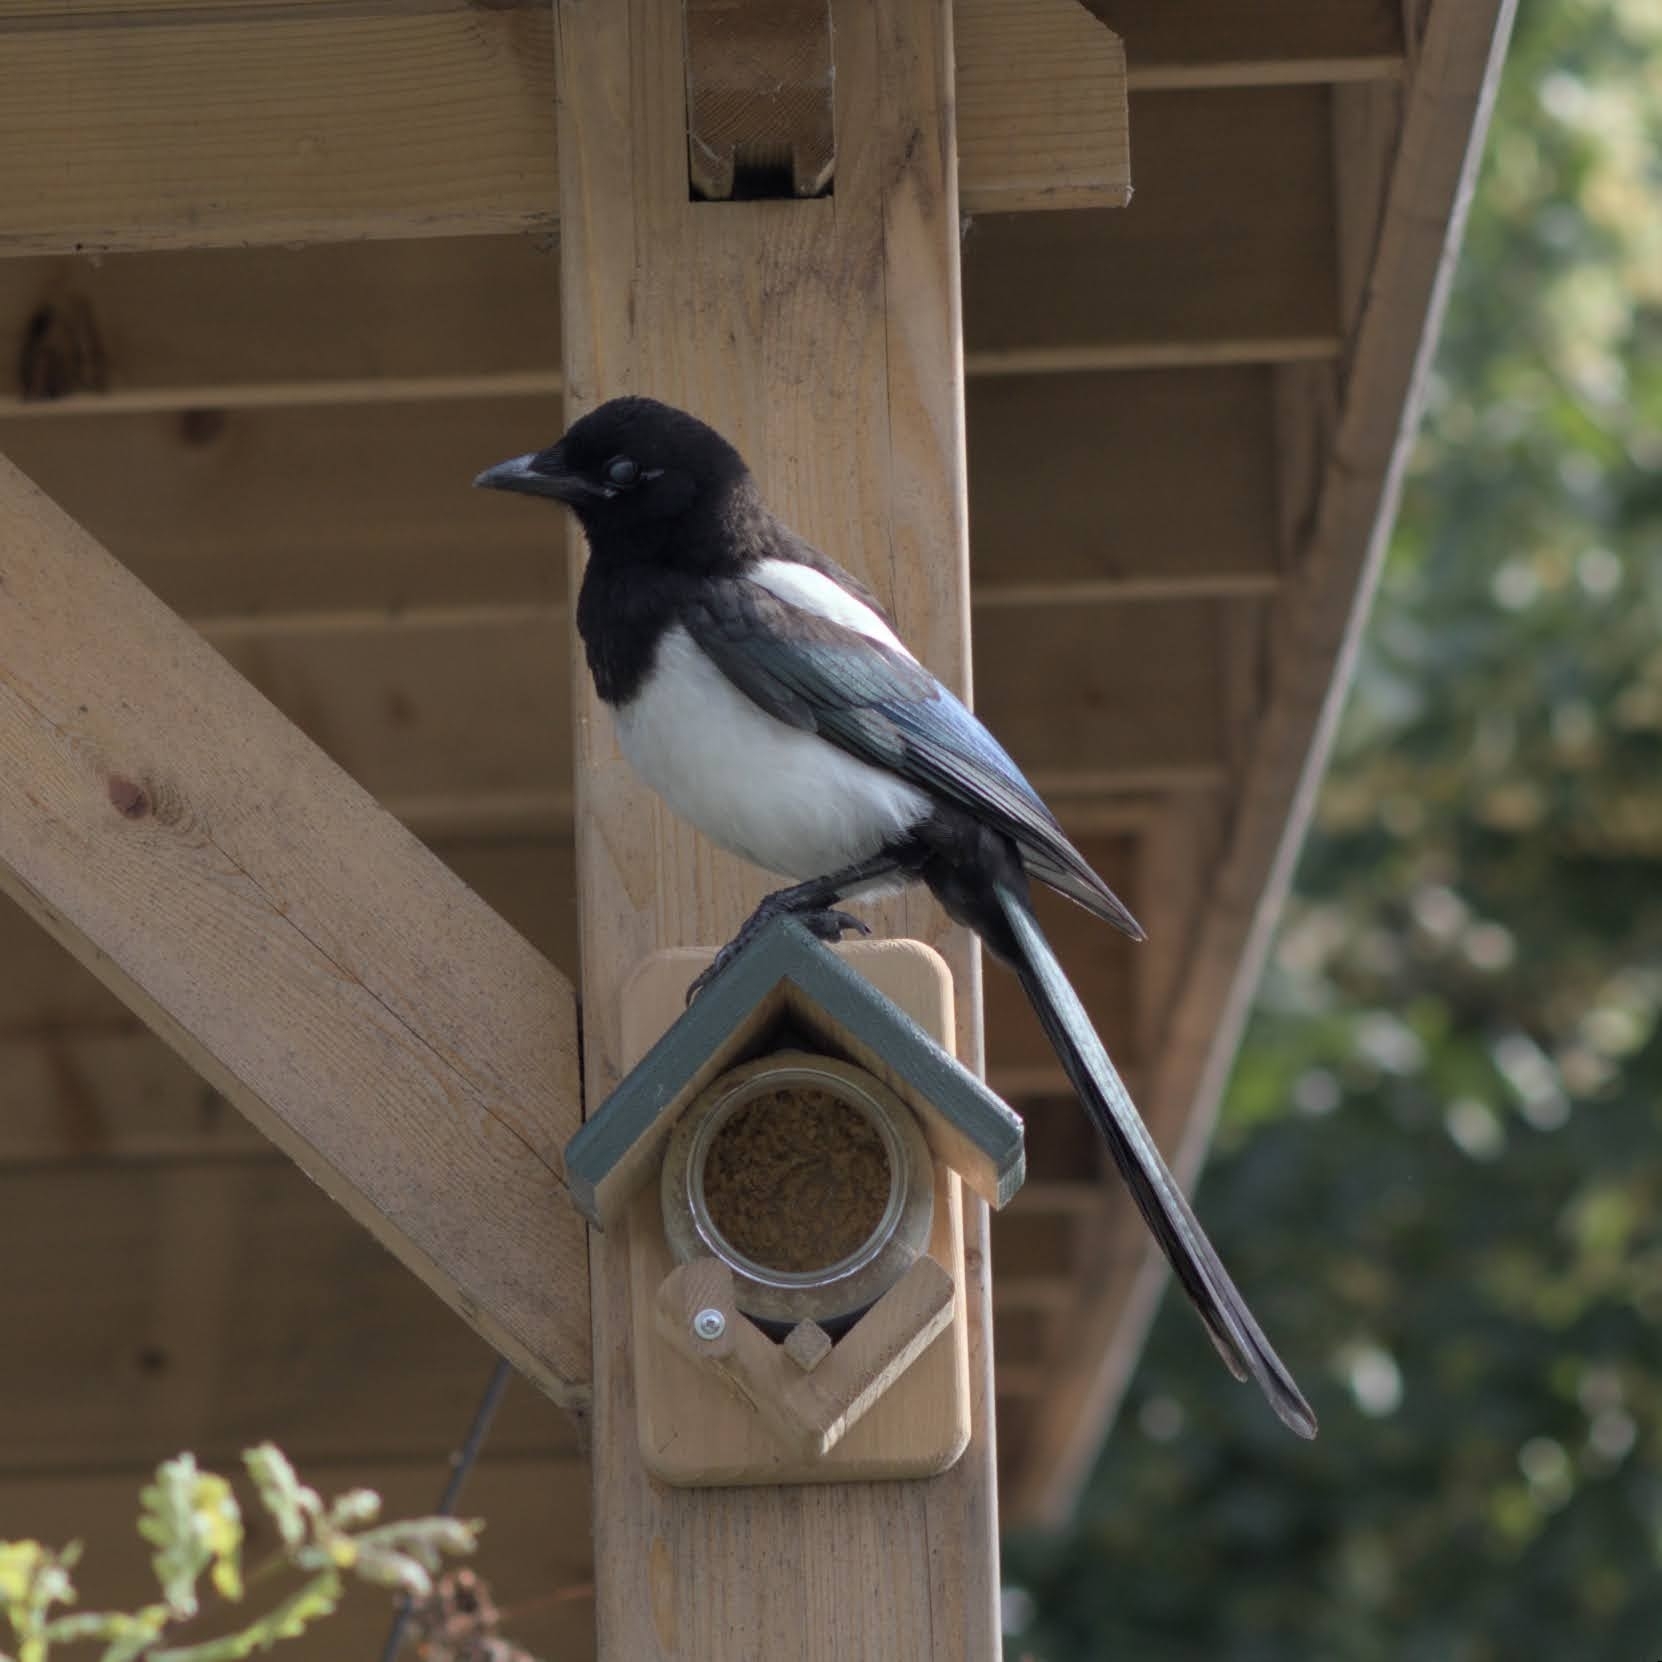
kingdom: Animalia
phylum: Chordata
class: Aves
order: Passeriformes
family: Corvidae
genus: Pica
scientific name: Pica pica
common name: Eurasian magpie
